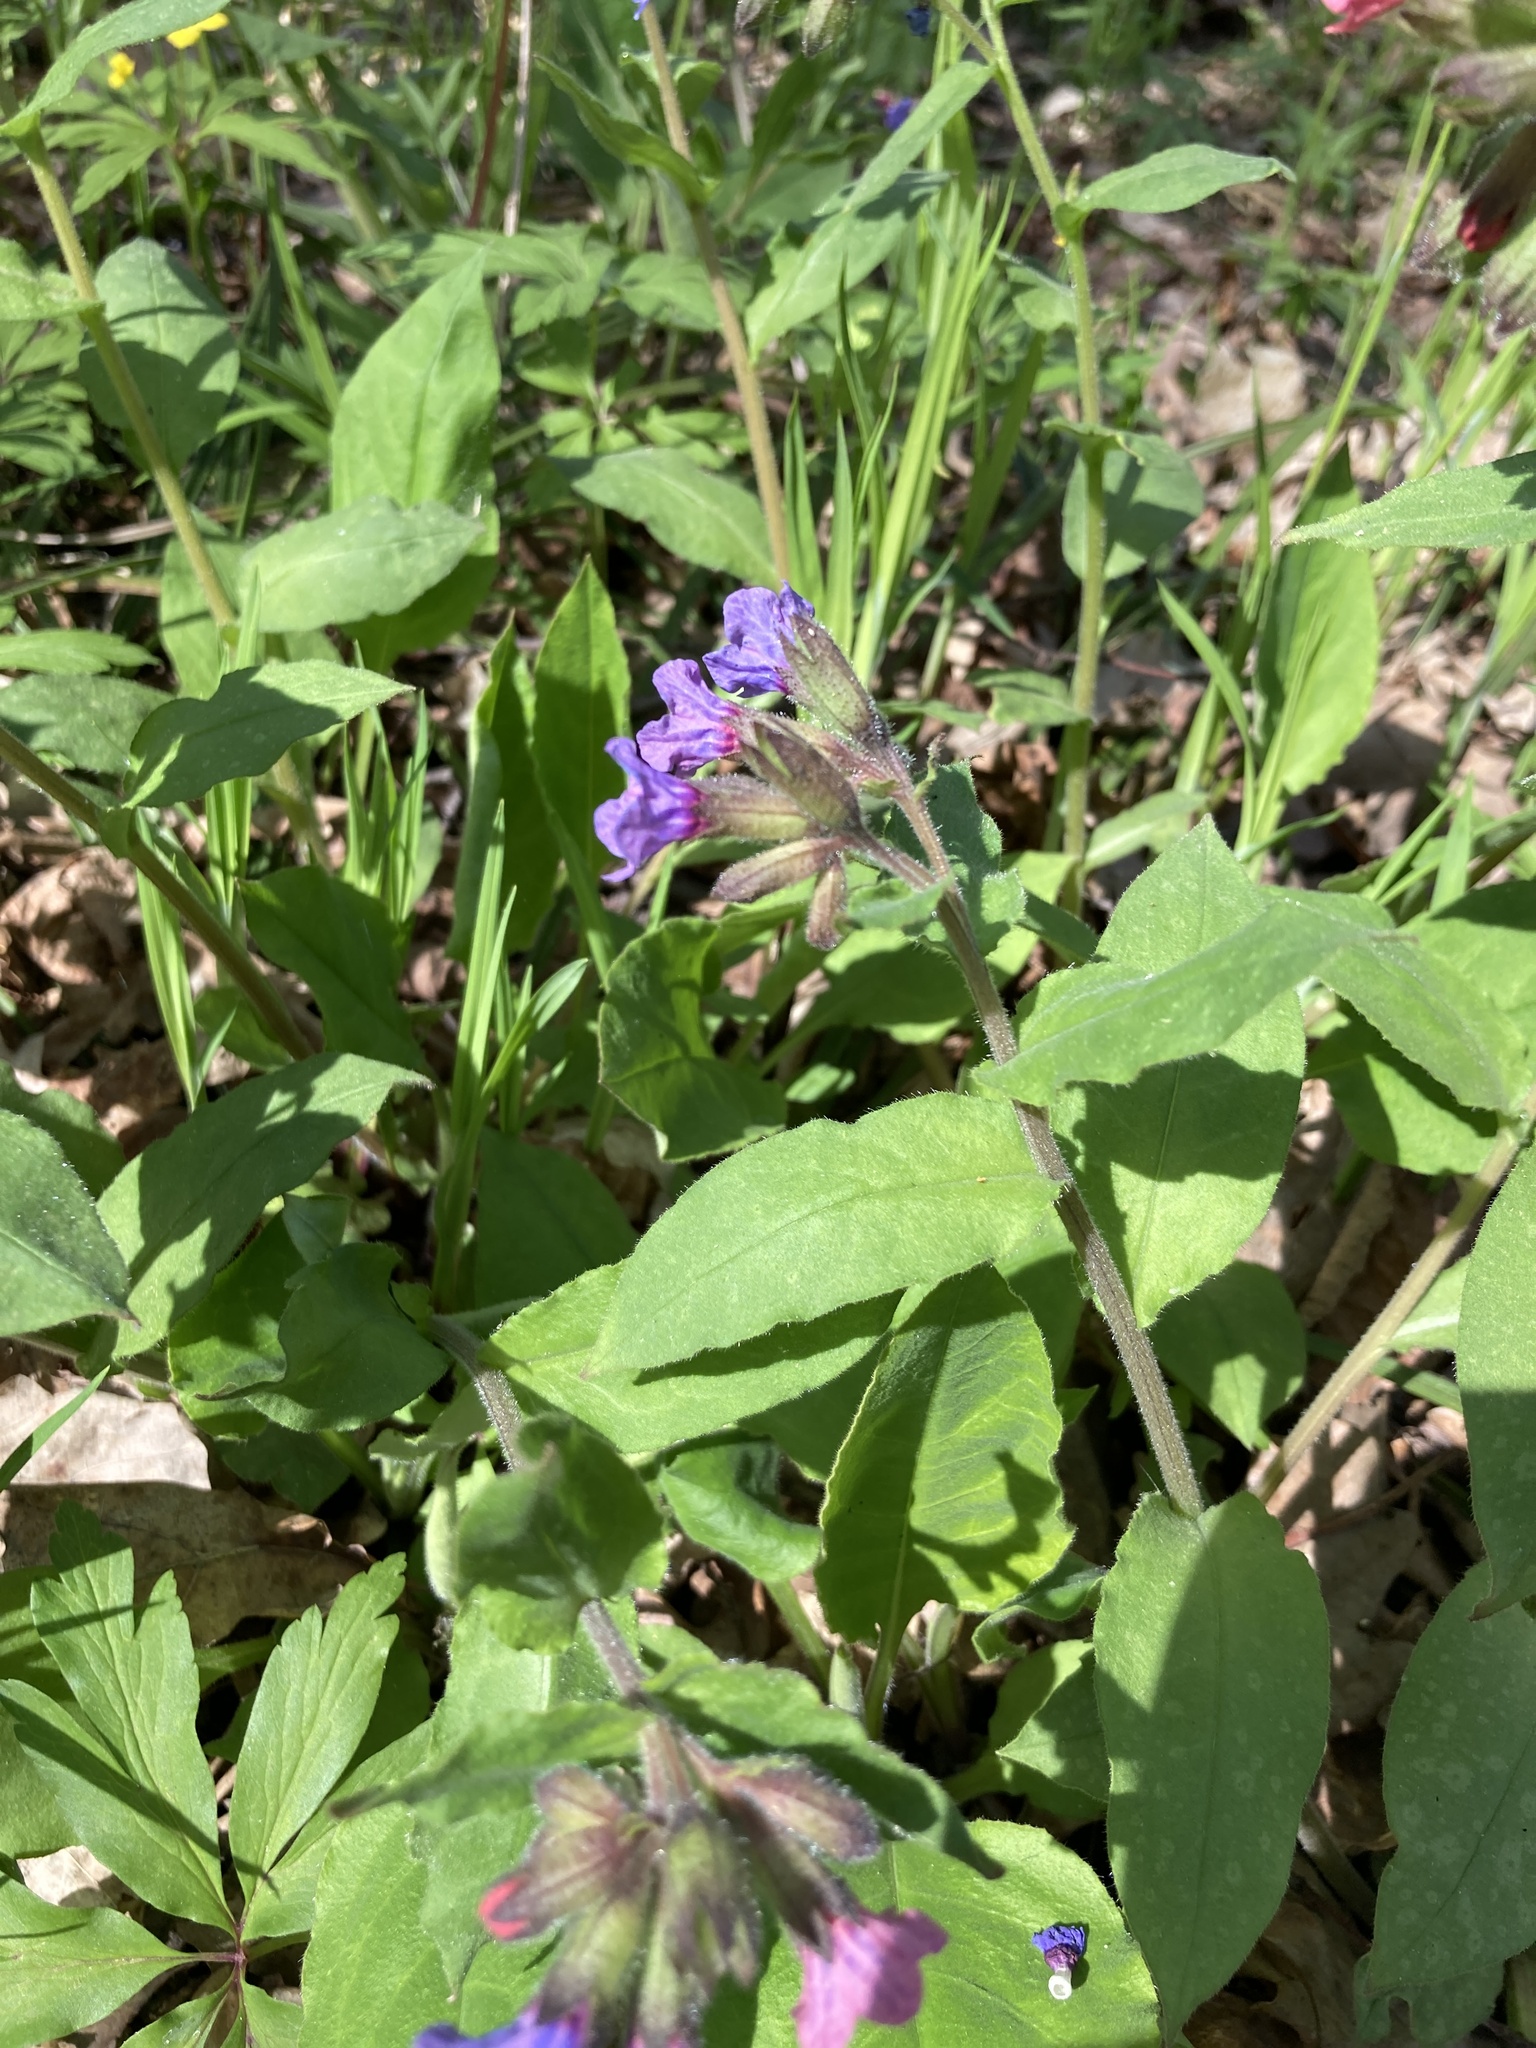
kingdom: Plantae
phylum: Tracheophyta
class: Magnoliopsida
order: Boraginales
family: Boraginaceae
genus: Pulmonaria
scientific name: Pulmonaria obscura
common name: Suffolk lungwort
